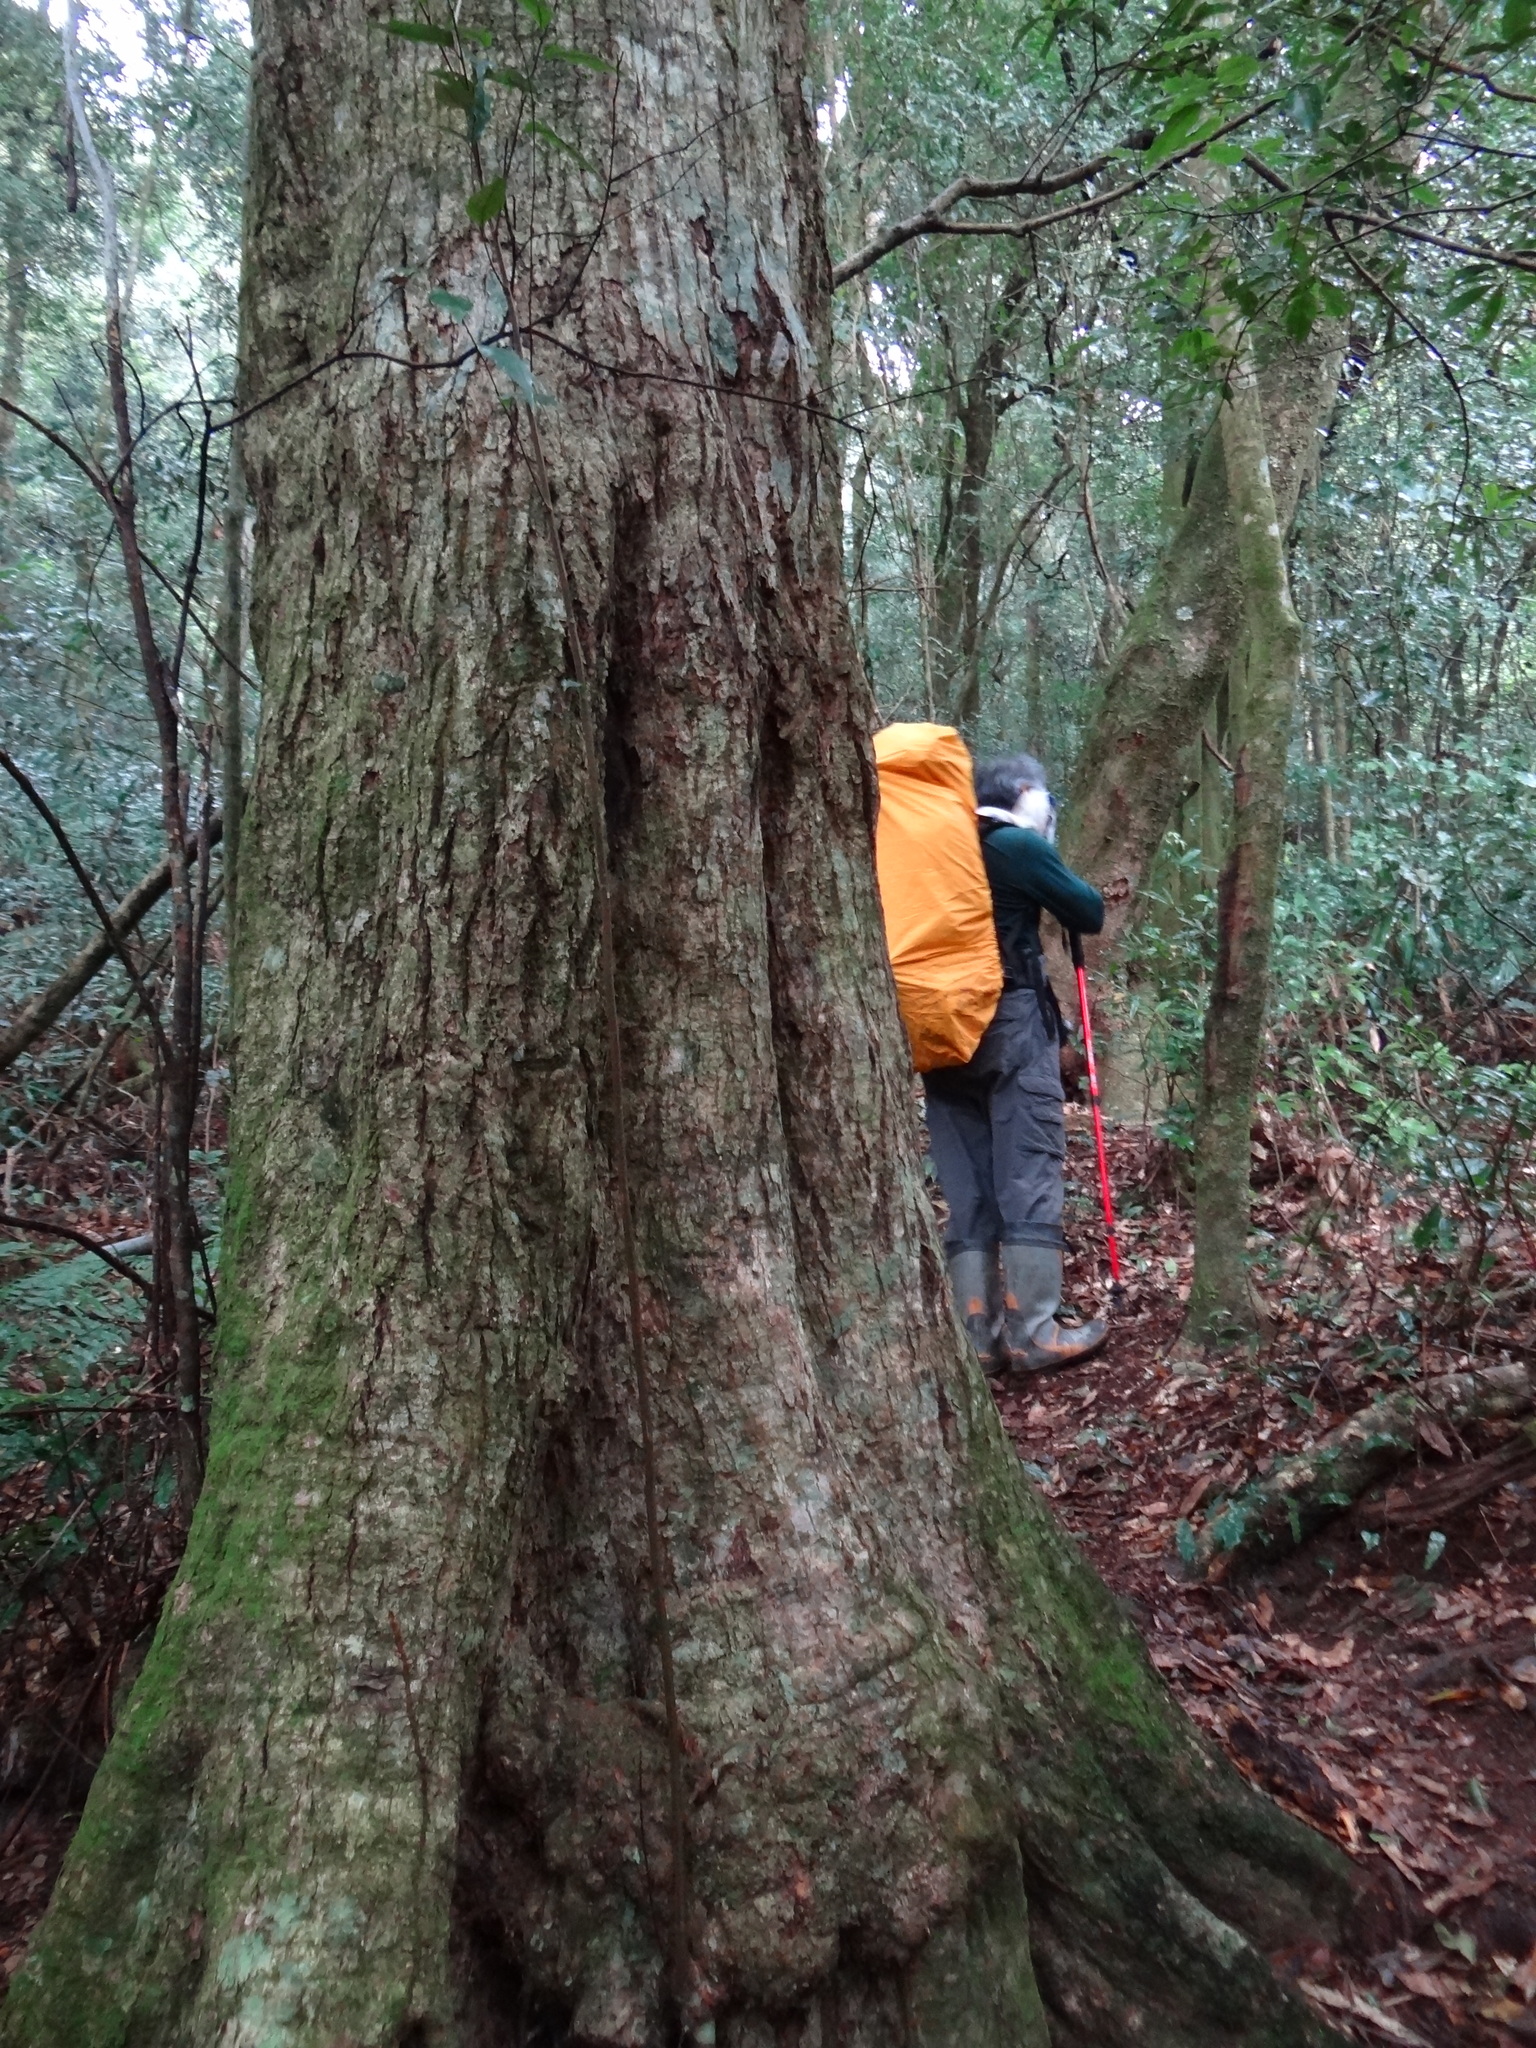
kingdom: Plantae
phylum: Tracheophyta
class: Magnoliopsida
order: Fagales
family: Fagaceae
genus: Castanopsis
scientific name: Castanopsis carlesii
